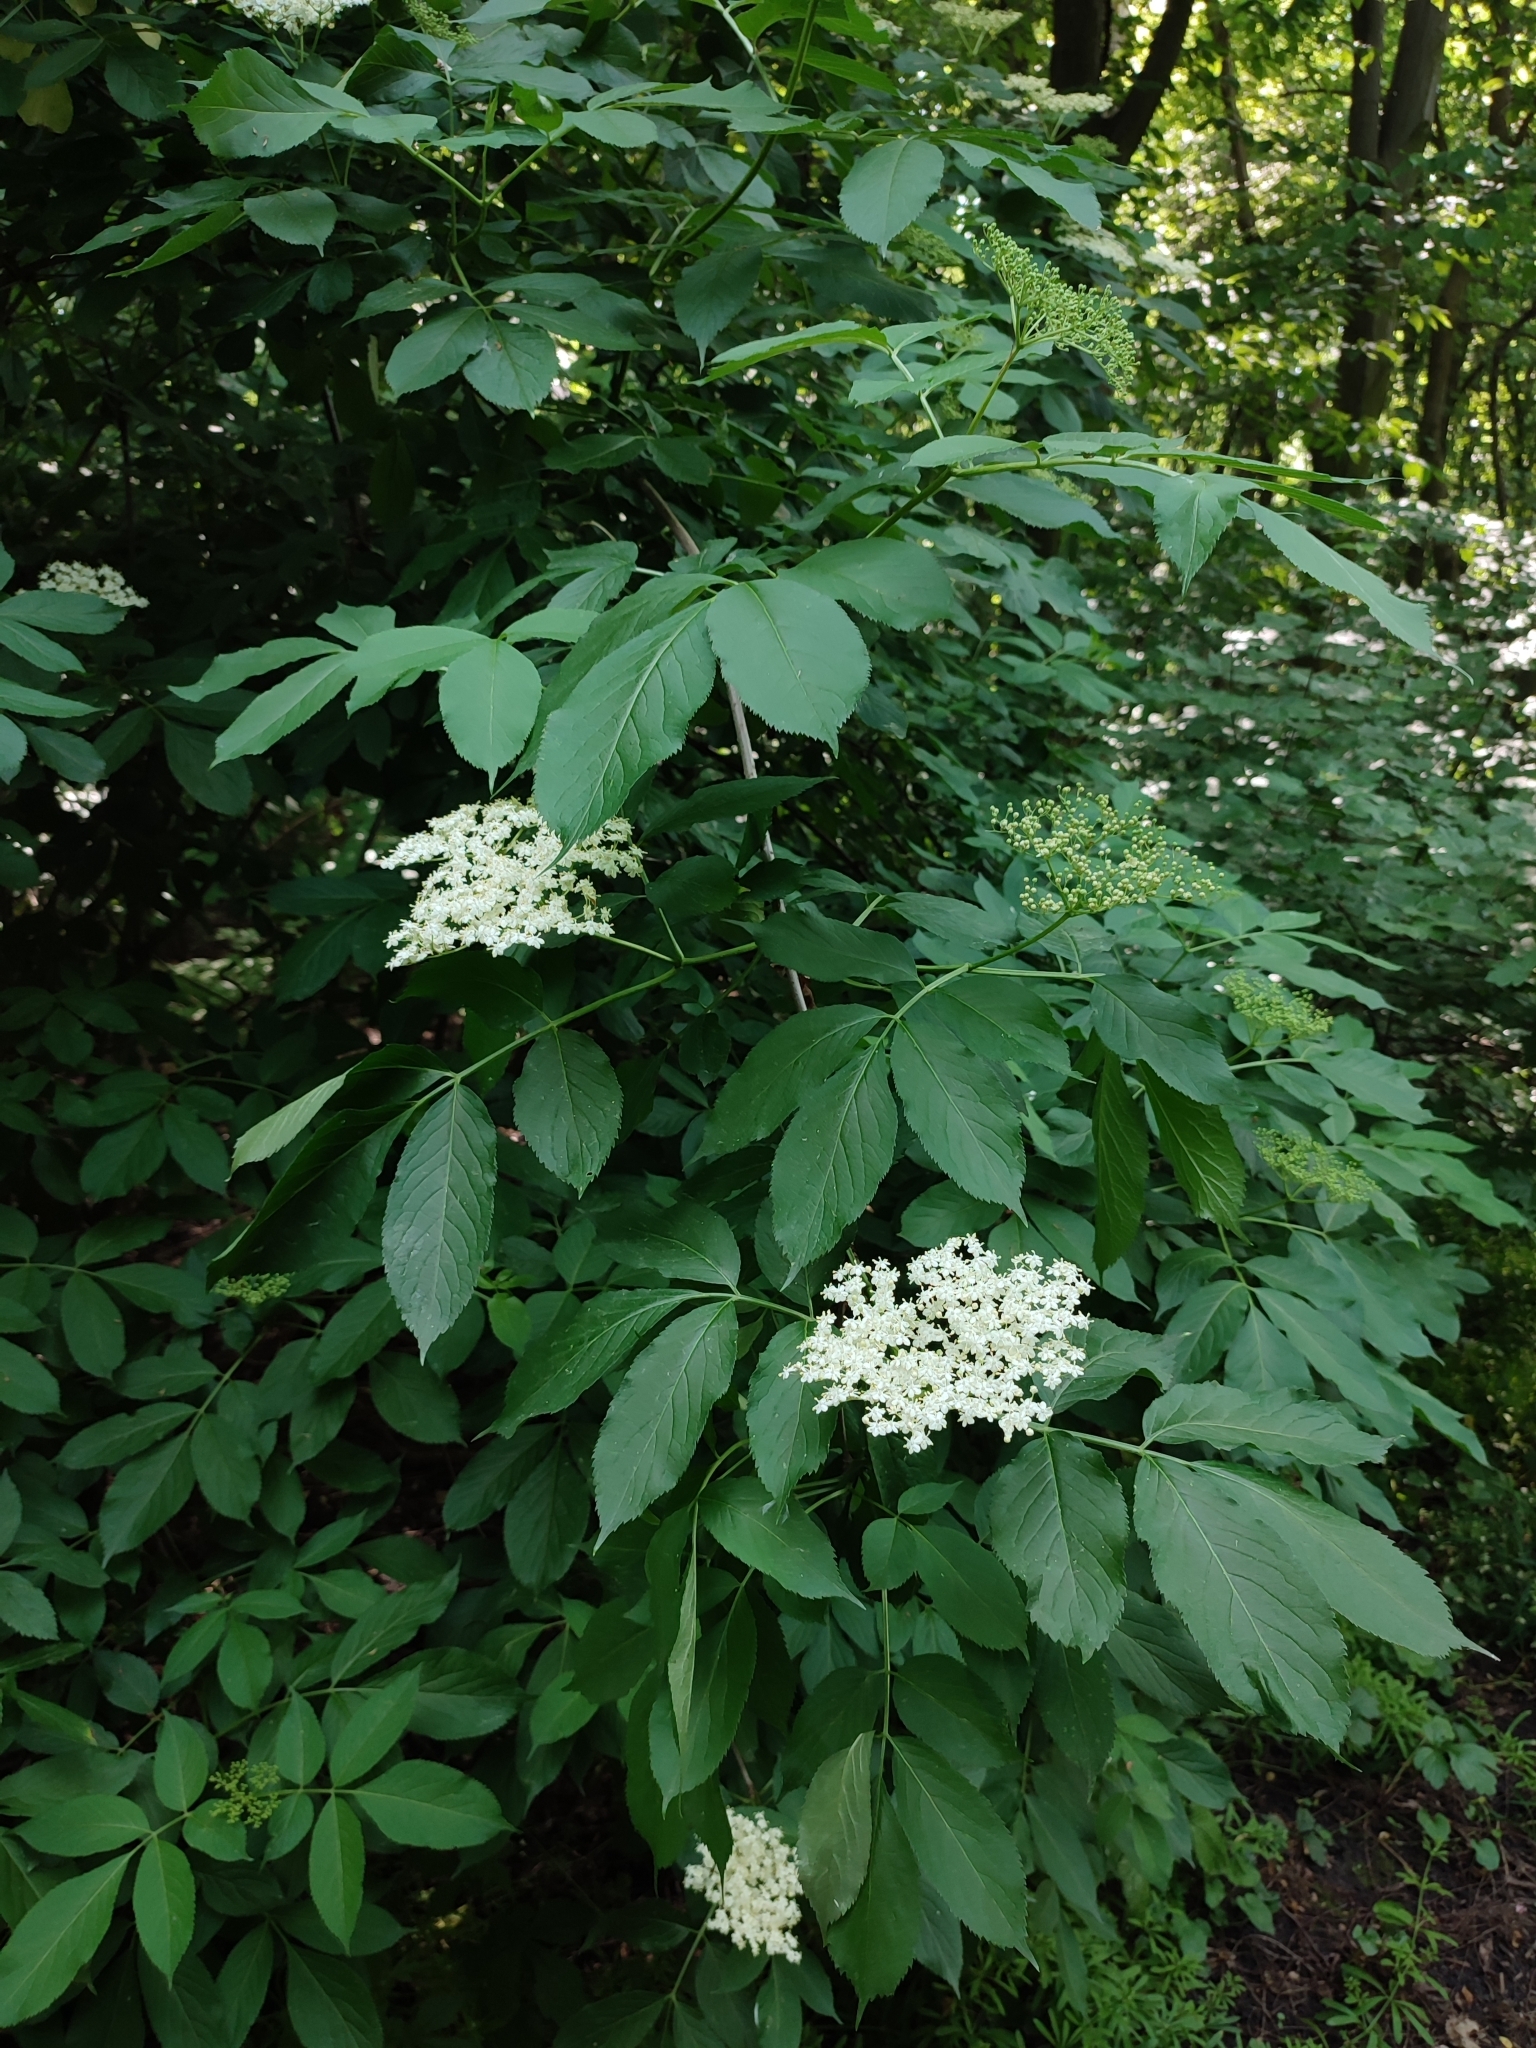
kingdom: Plantae
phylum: Tracheophyta
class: Magnoliopsida
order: Dipsacales
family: Viburnaceae
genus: Sambucus
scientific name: Sambucus nigra
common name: Elder
